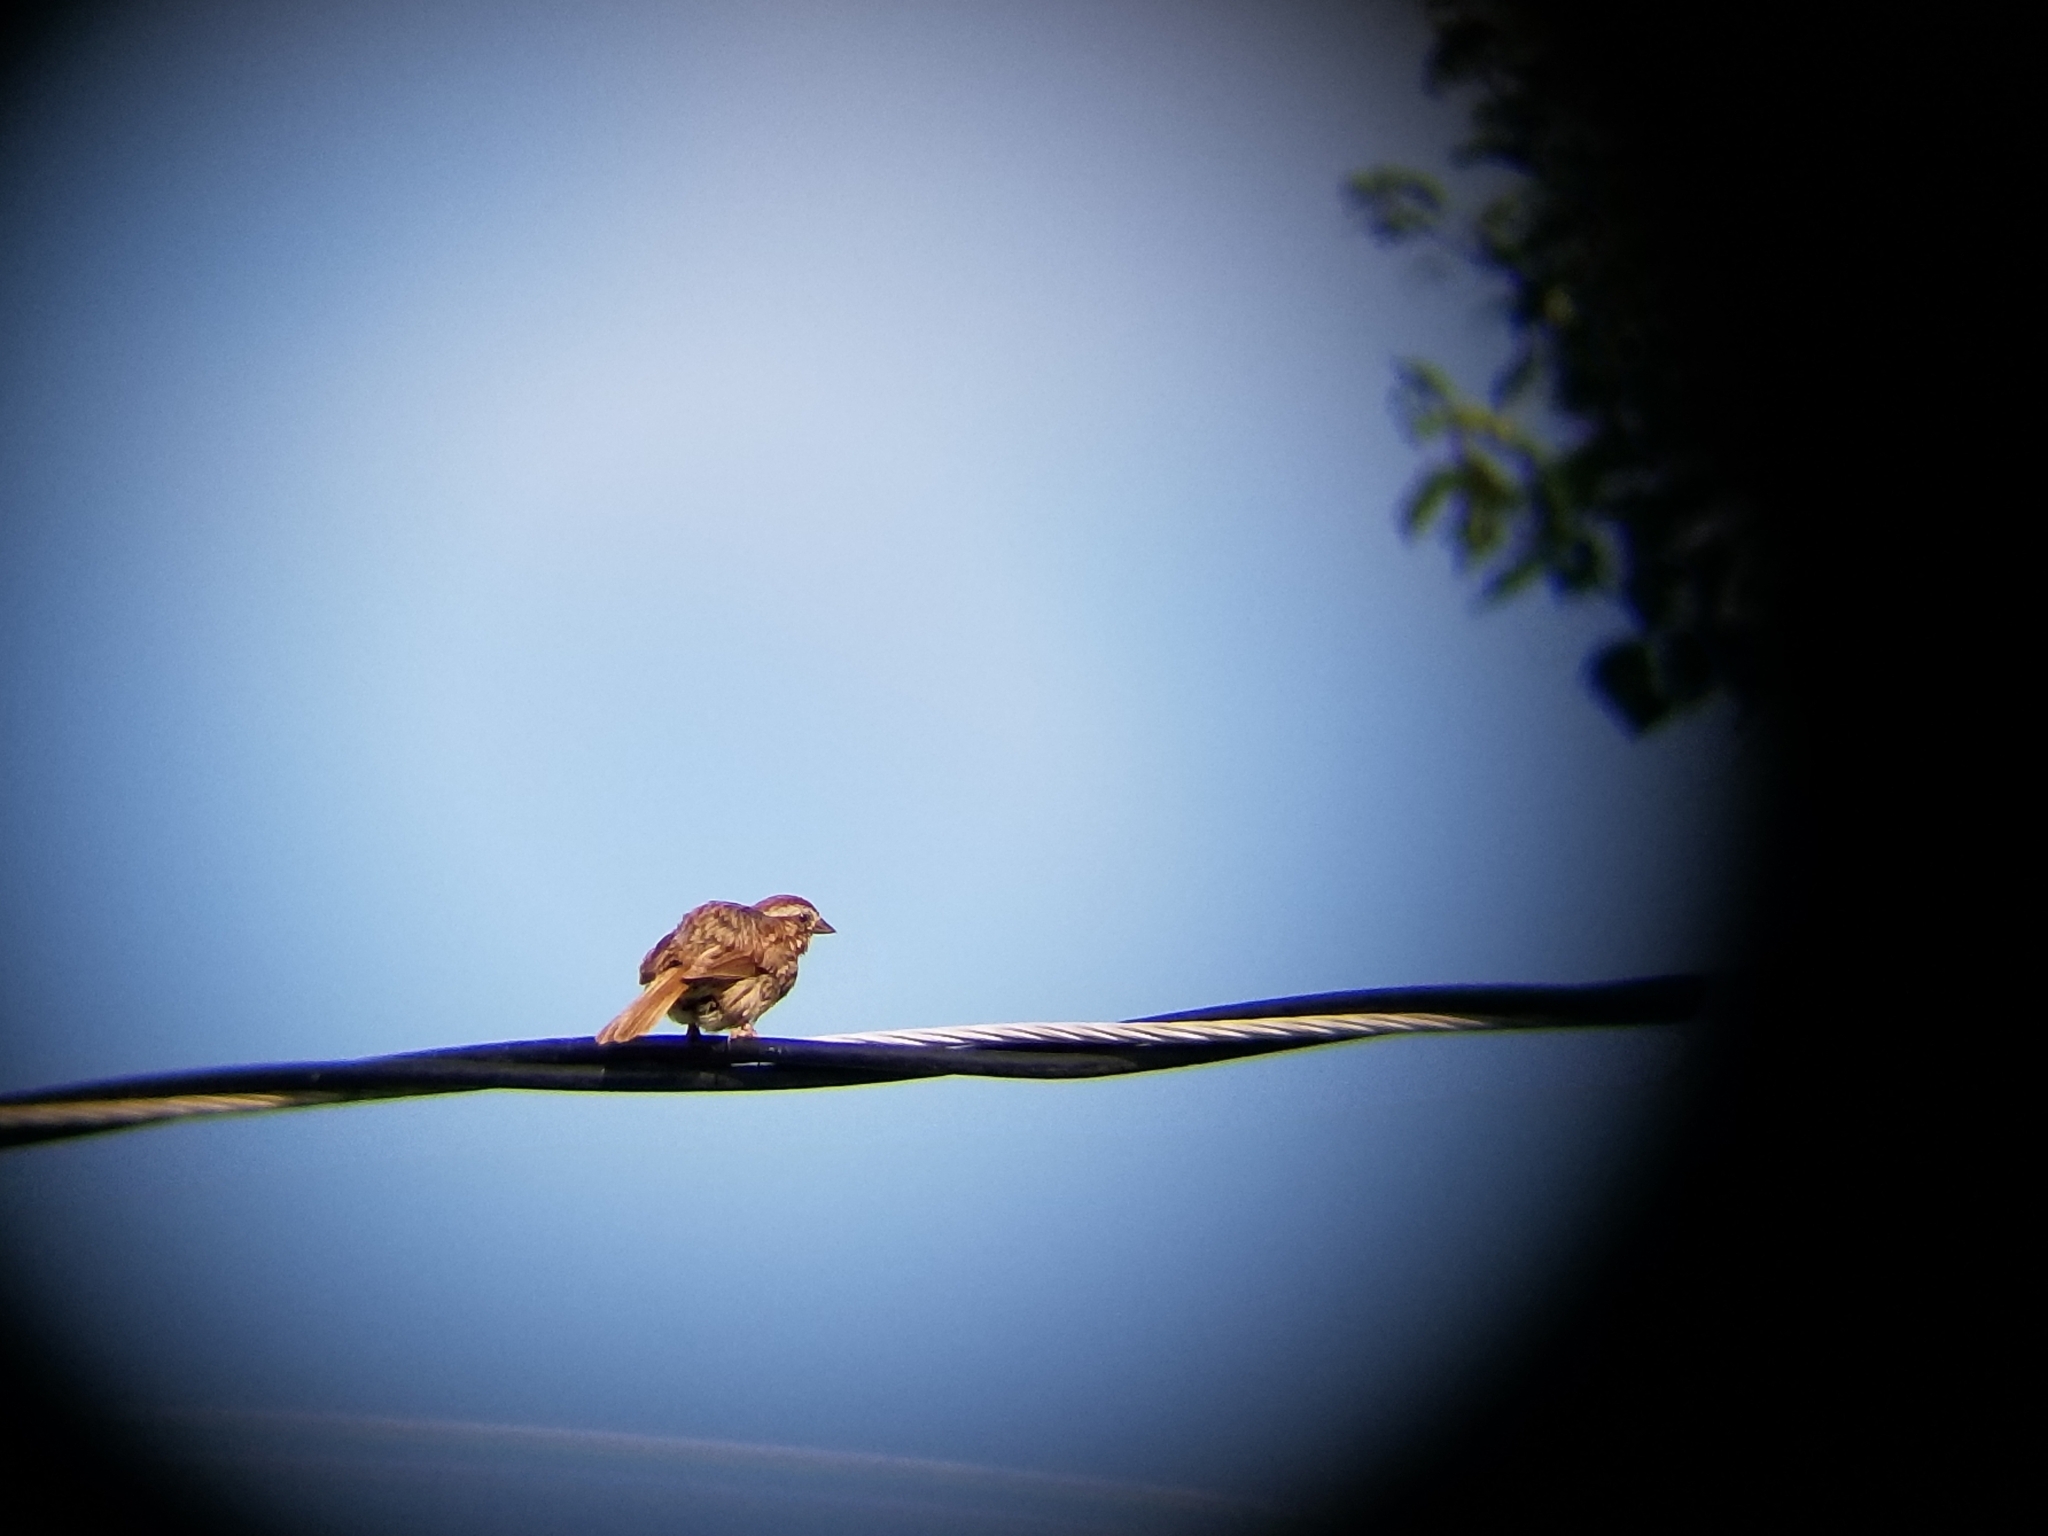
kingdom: Animalia
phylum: Chordata
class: Aves
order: Passeriformes
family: Passerellidae
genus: Melospiza
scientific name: Melospiza melodia
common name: Song sparrow
